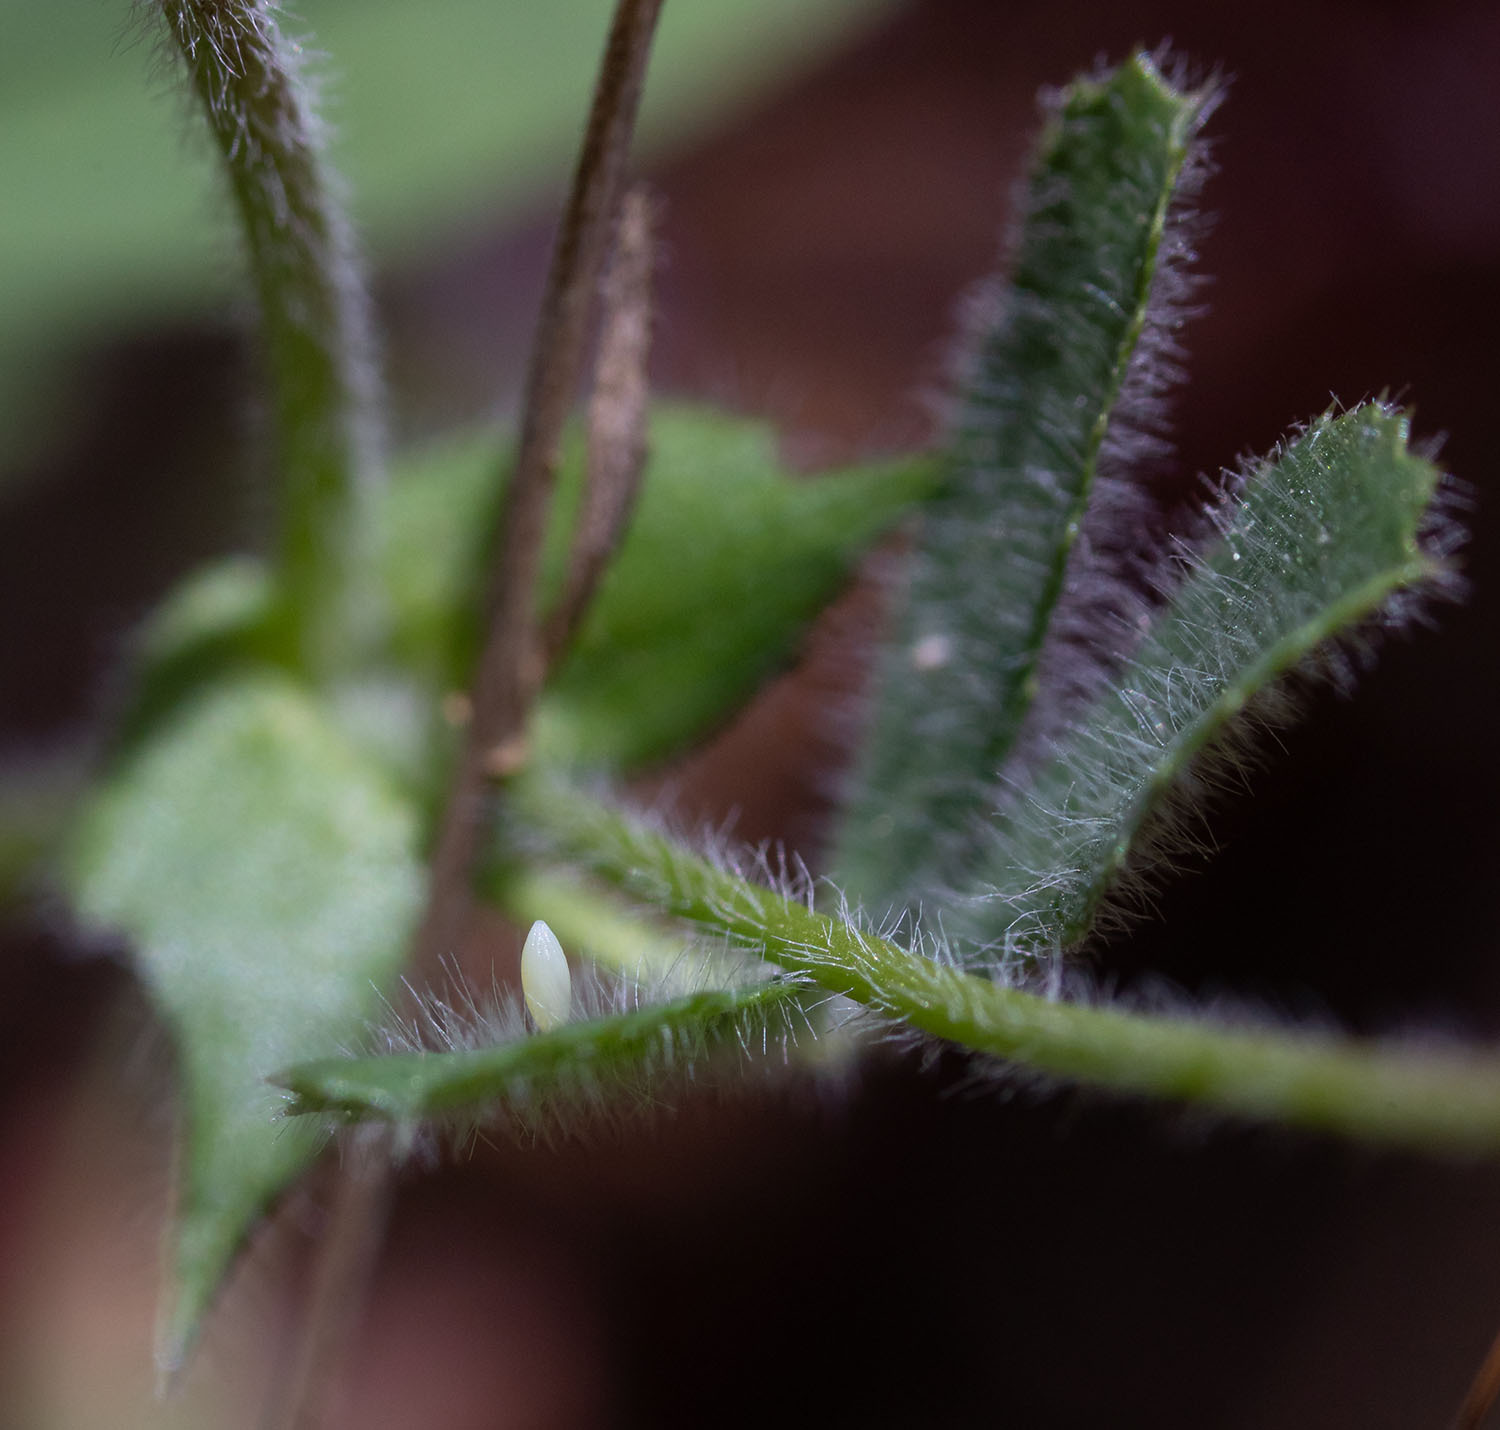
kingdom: Animalia
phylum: Arthropoda
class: Insecta
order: Lepidoptera
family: Pieridae
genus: Colias
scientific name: Colias eurytheme
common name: Alfalfa butterfly
